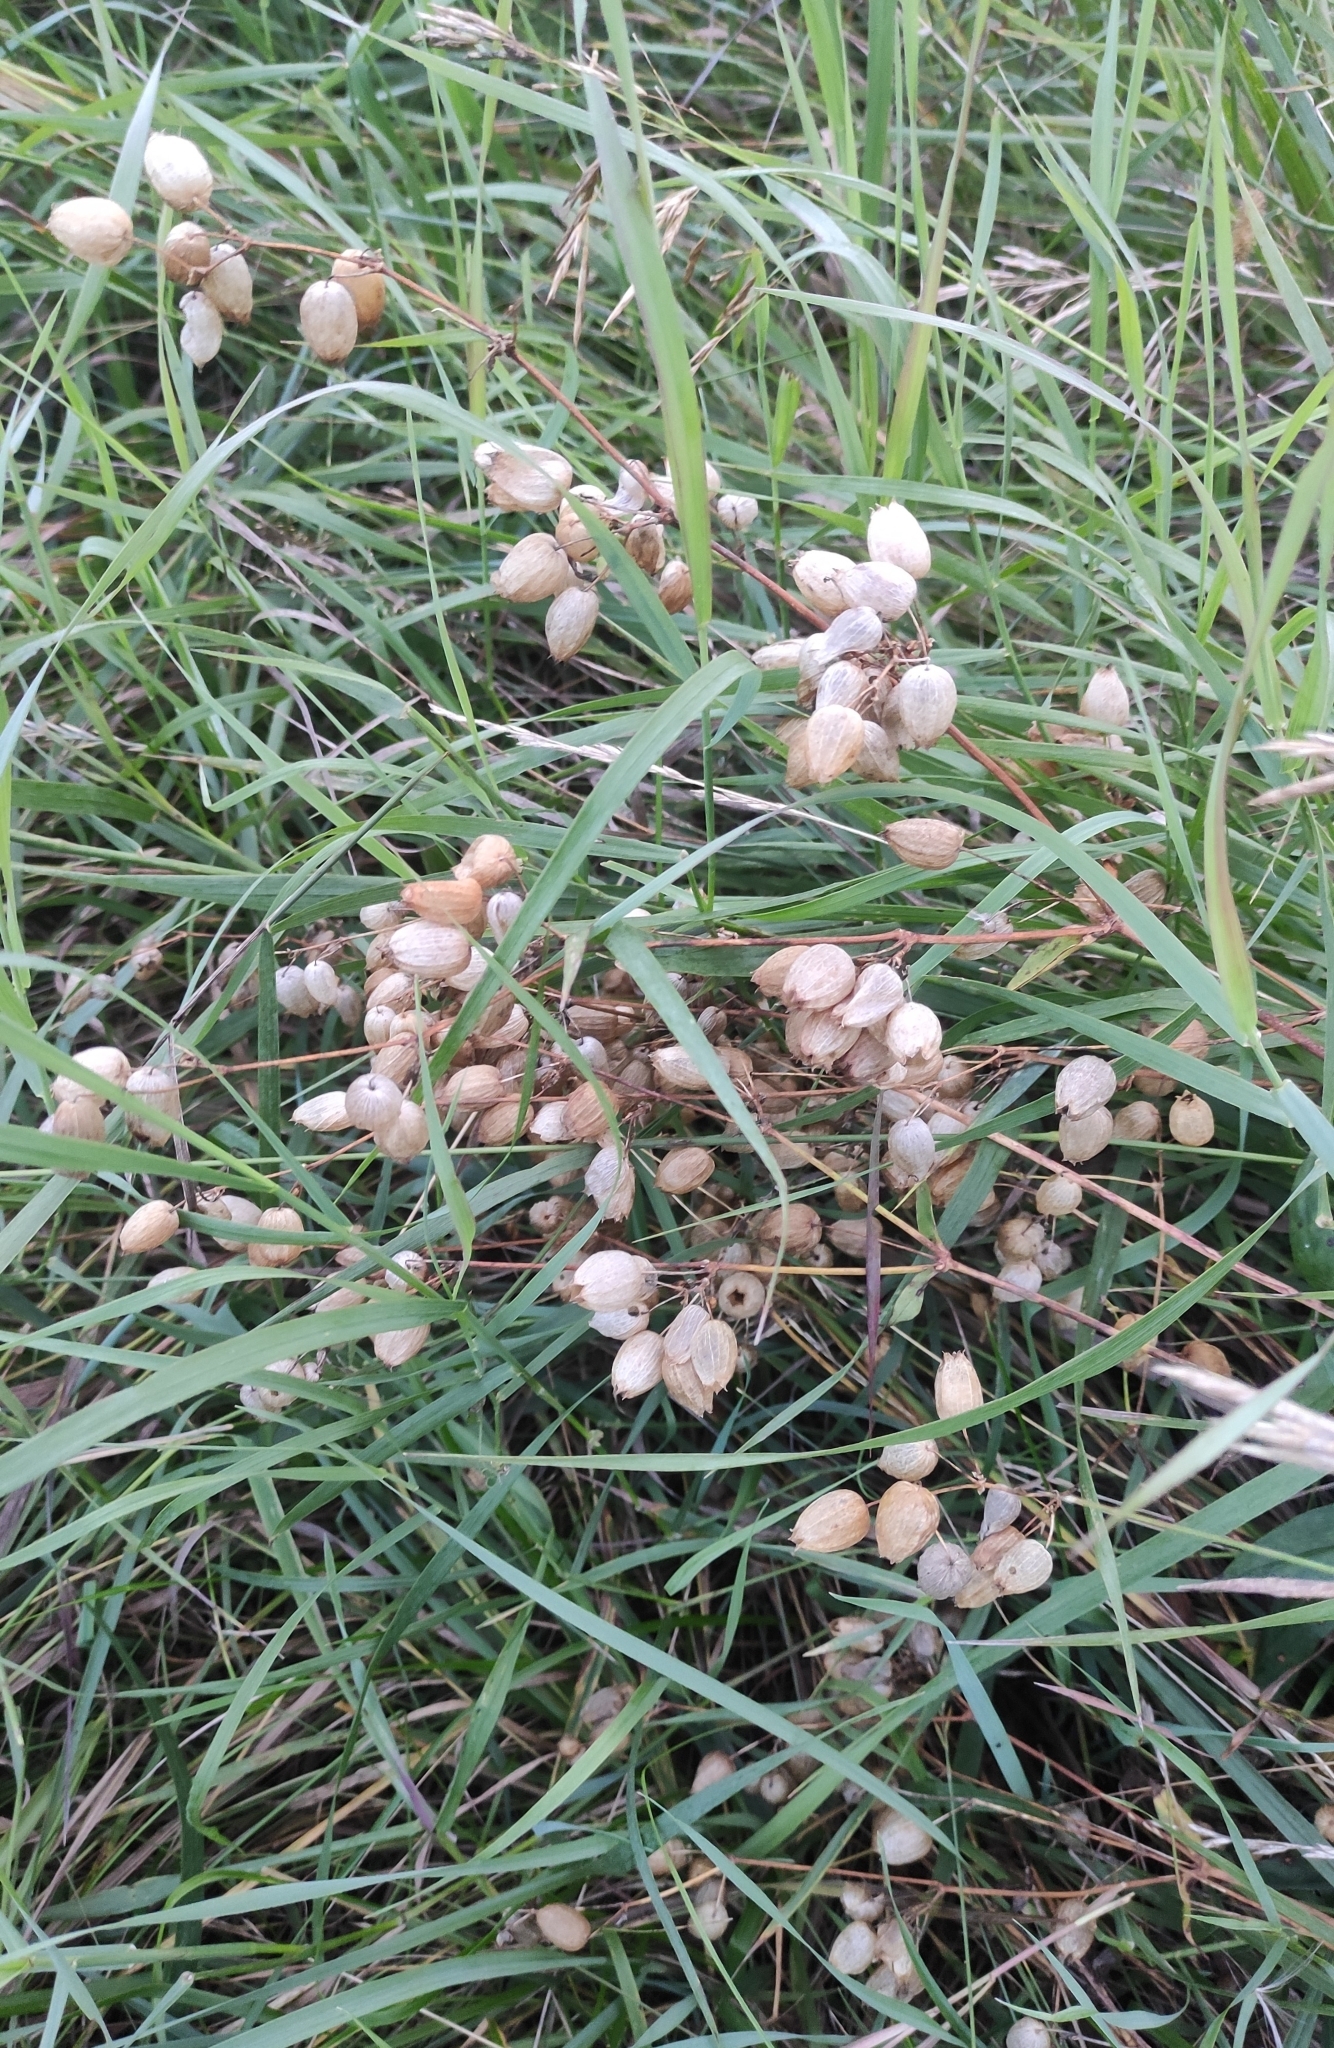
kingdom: Plantae
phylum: Tracheophyta
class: Magnoliopsida
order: Caryophyllales
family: Caryophyllaceae
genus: Silene
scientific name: Silene vulgaris
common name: Bladder campion
